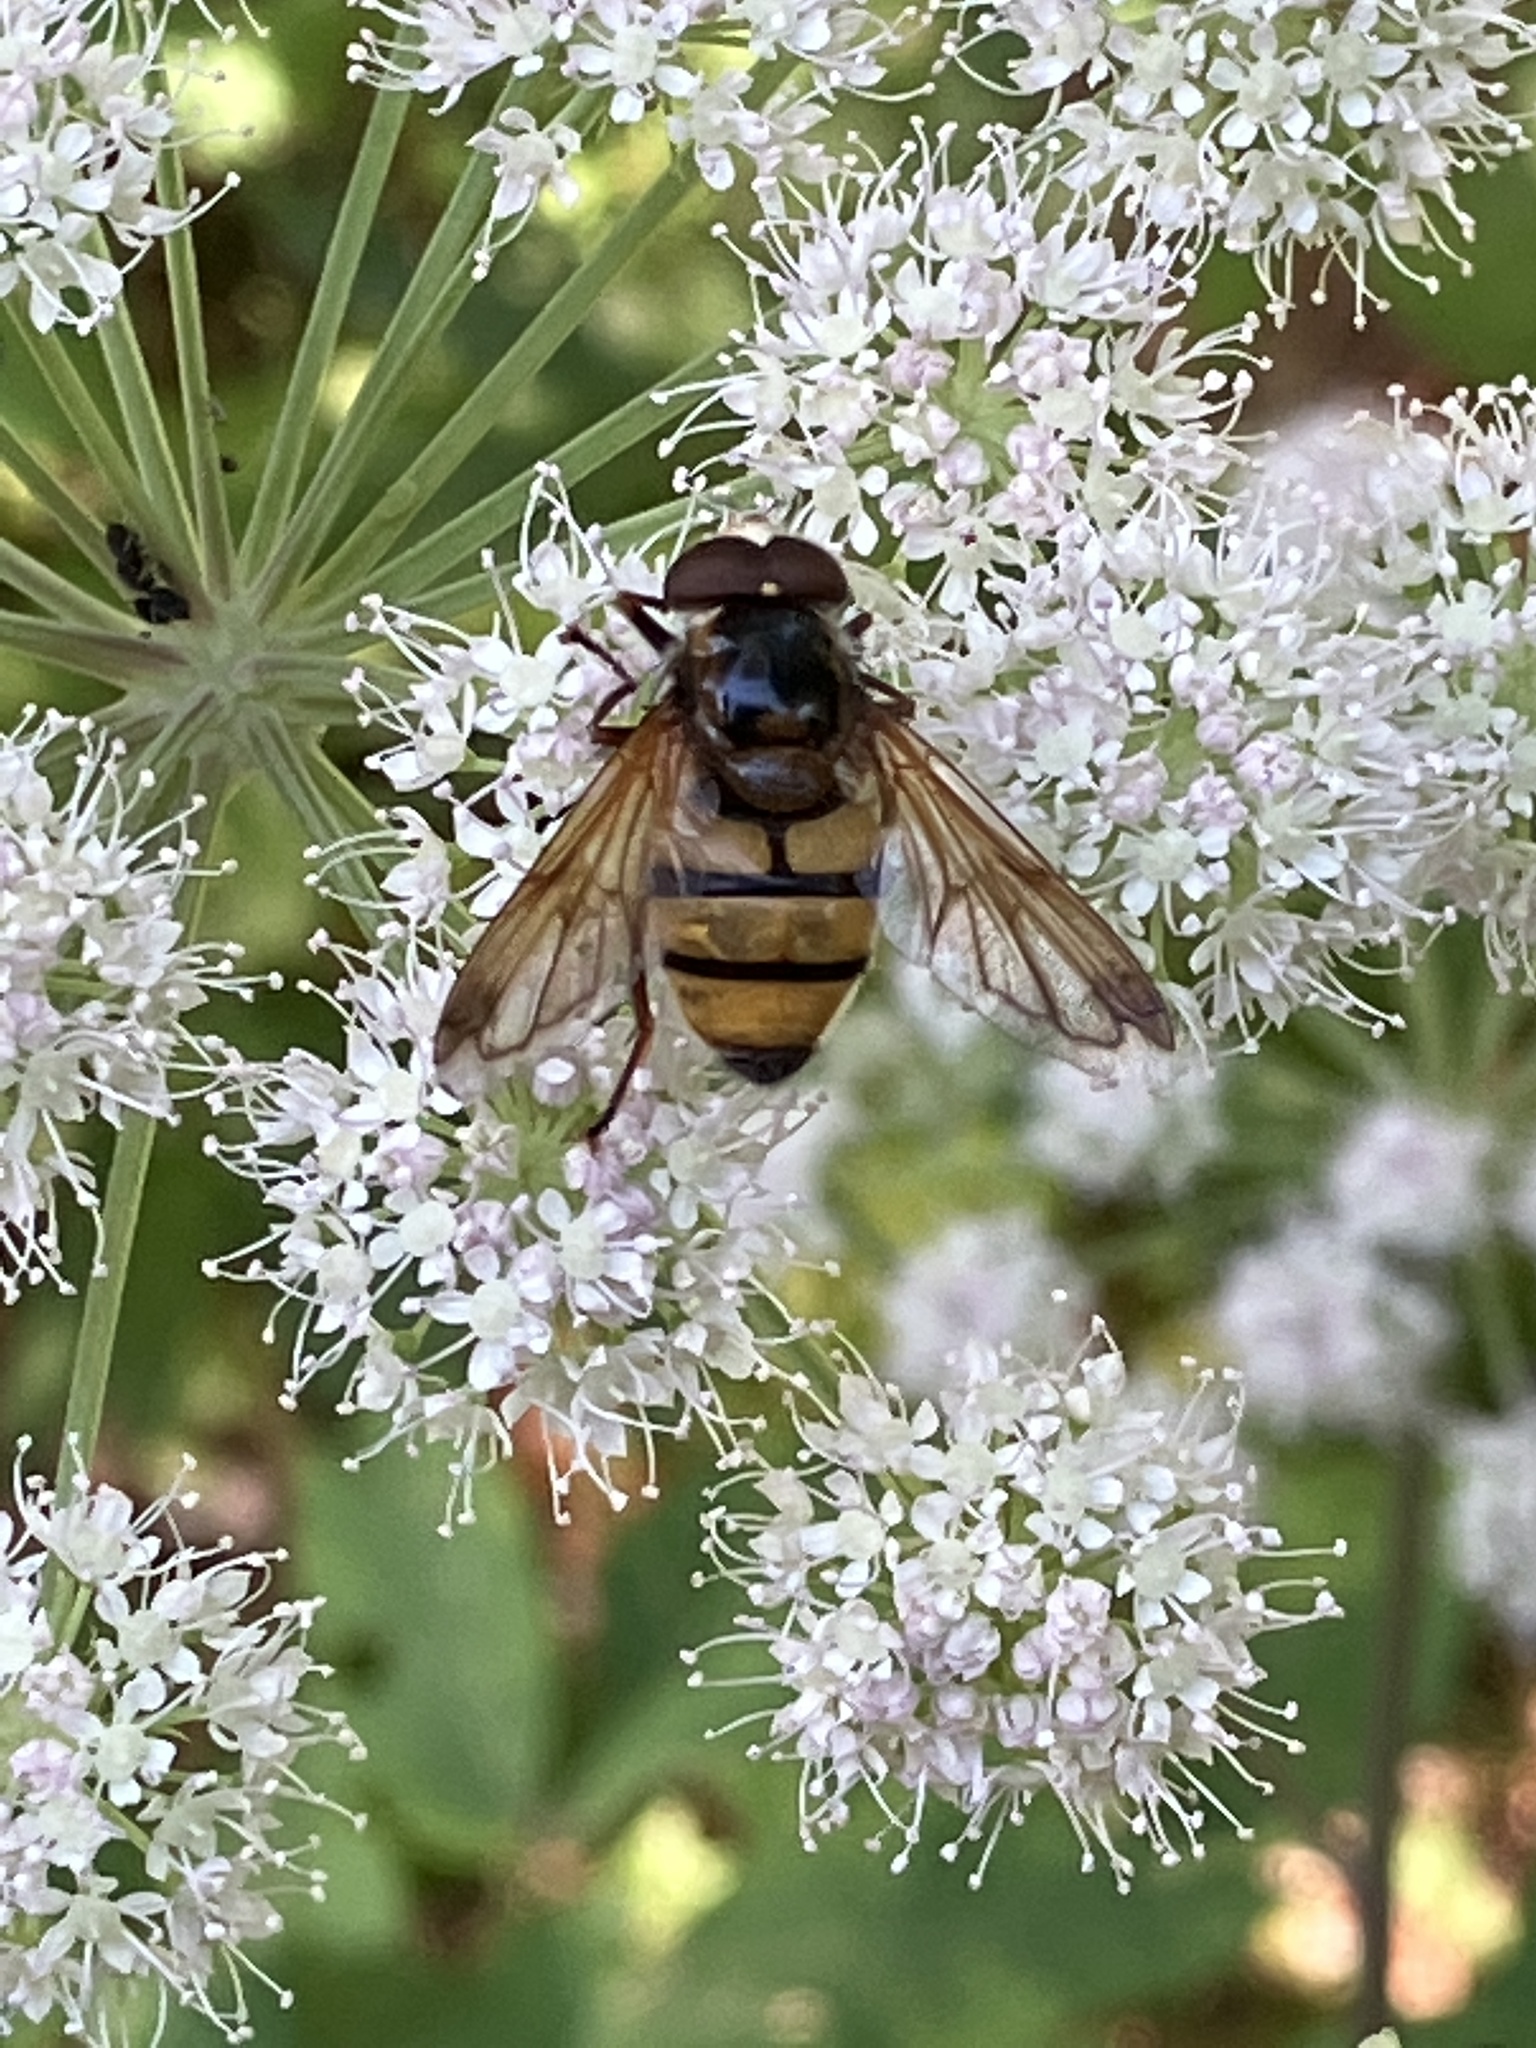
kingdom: Animalia
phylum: Arthropoda
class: Insecta
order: Diptera
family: Syrphidae
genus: Volucella
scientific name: Volucella inanis
